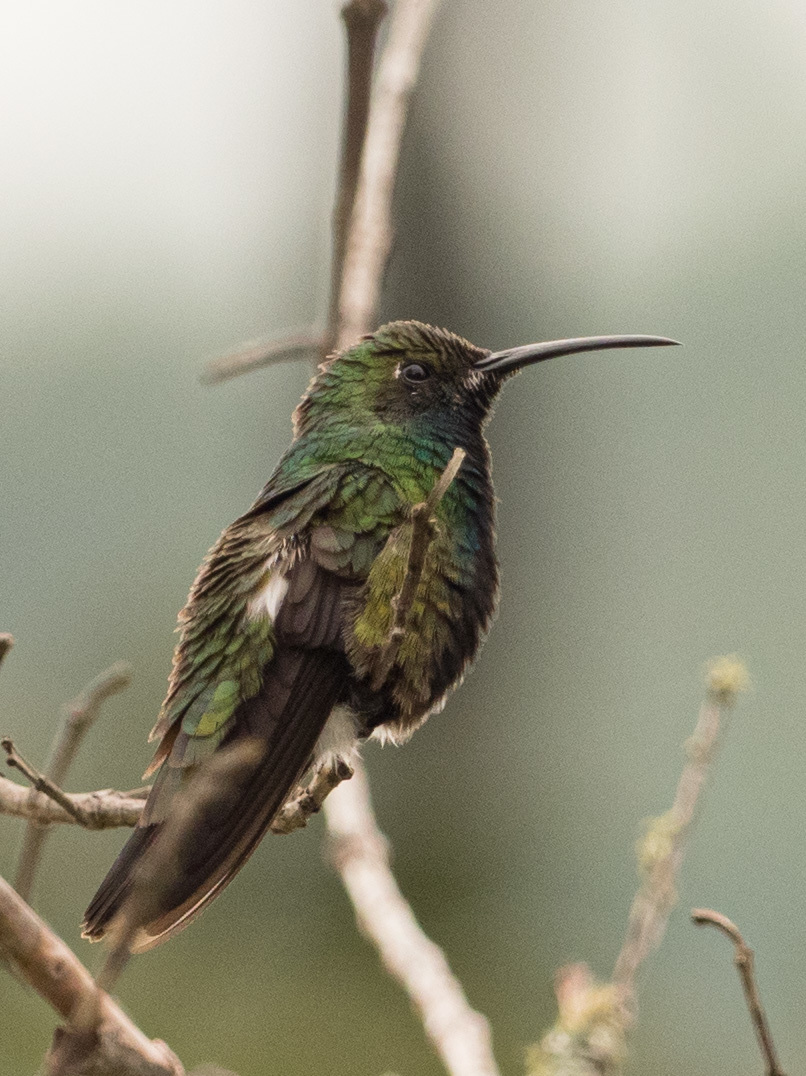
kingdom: Animalia
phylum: Chordata
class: Aves
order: Apodiformes
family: Trochilidae
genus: Anthracothorax
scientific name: Anthracothorax nigricollis
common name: Black-throated mango
